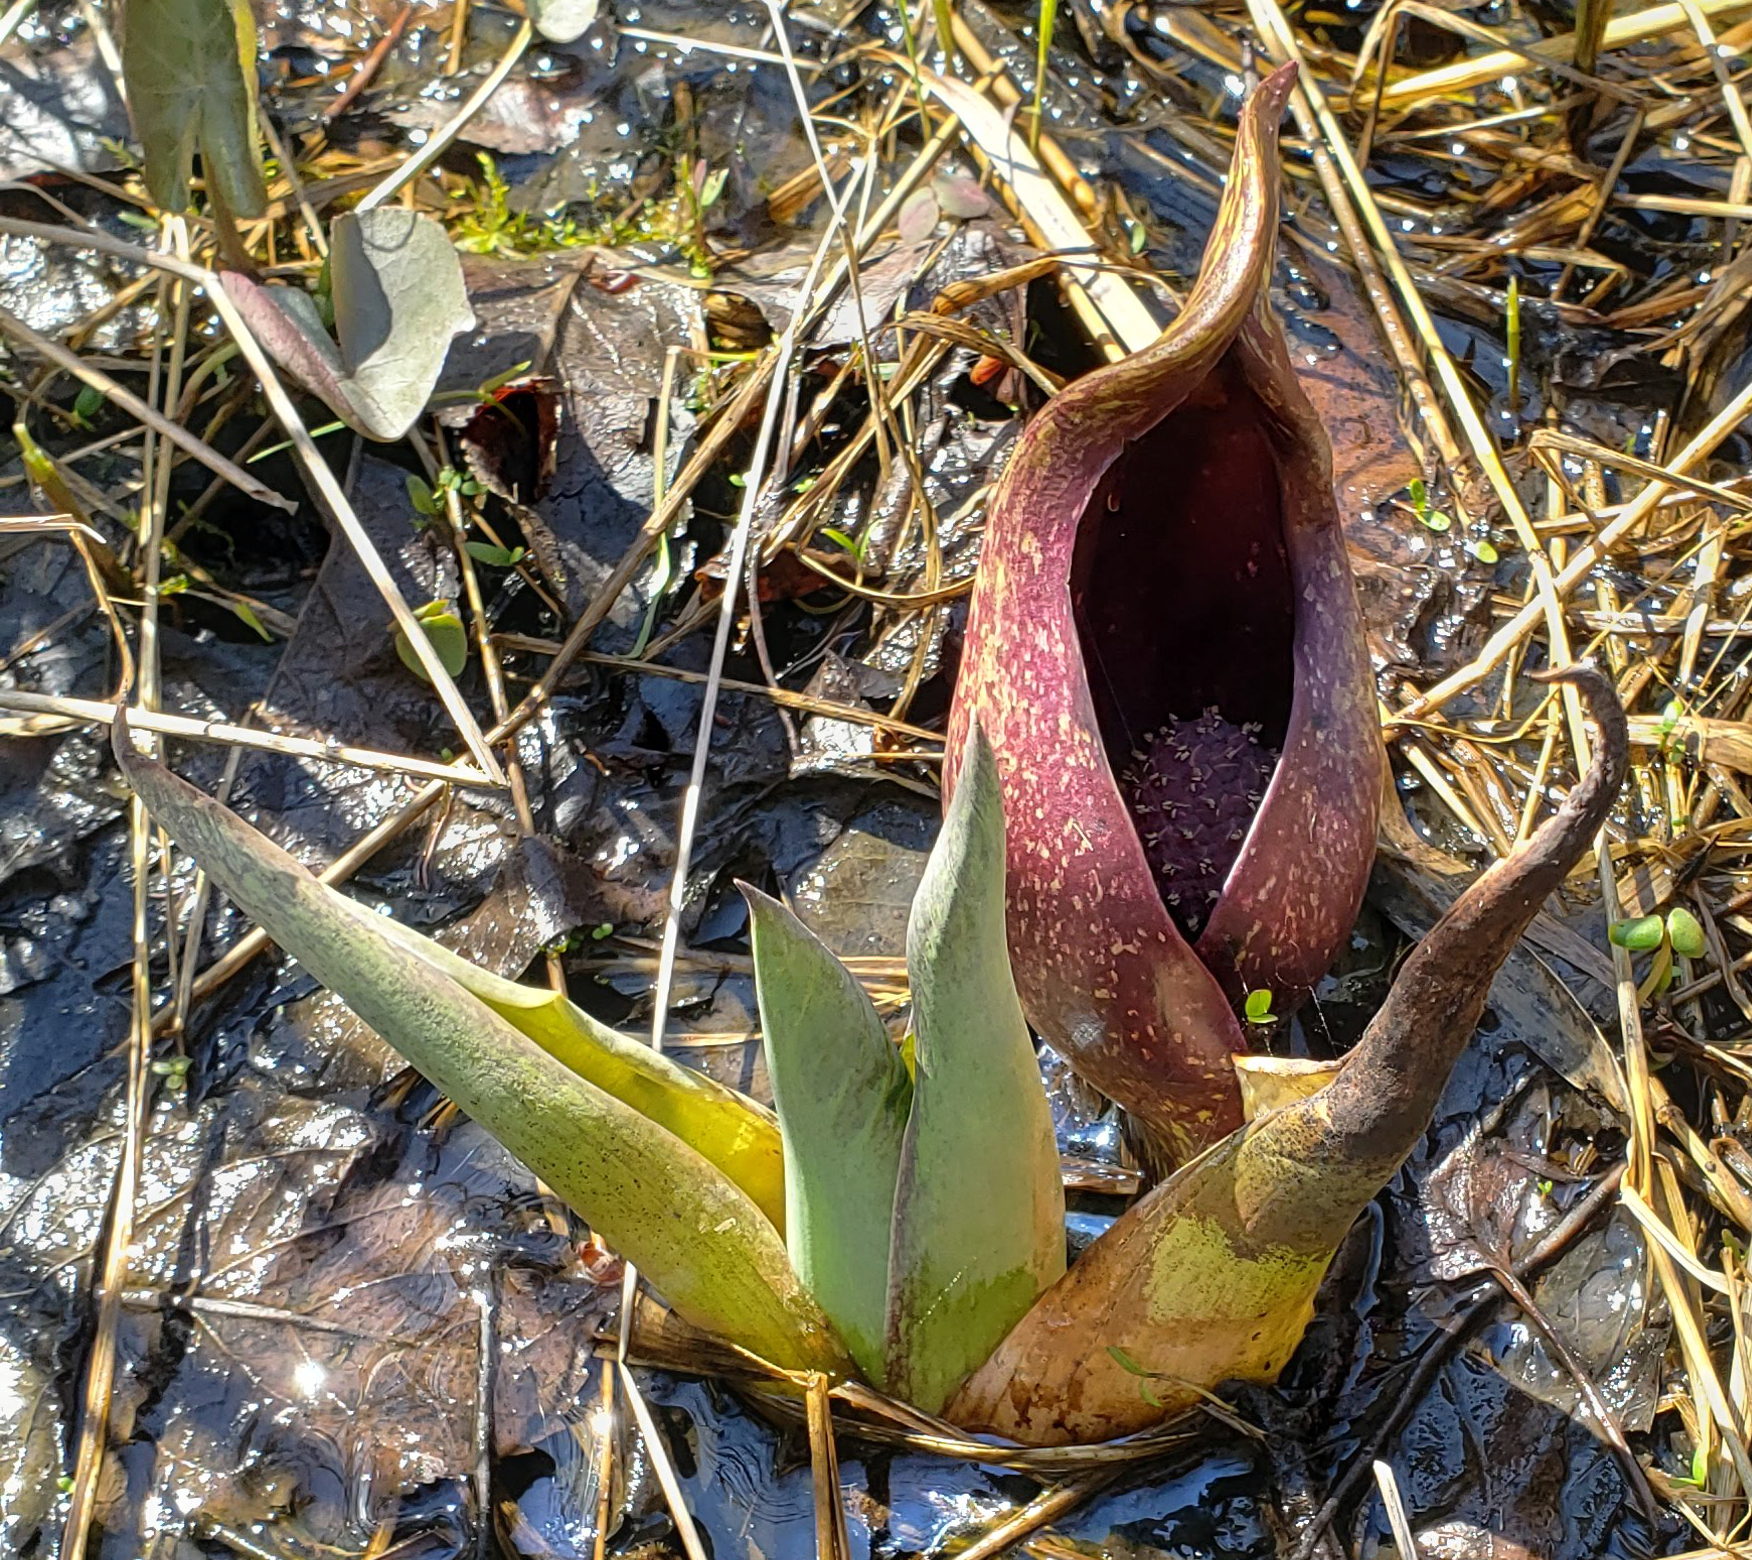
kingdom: Plantae
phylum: Tracheophyta
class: Liliopsida
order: Alismatales
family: Araceae
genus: Symplocarpus
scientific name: Symplocarpus foetidus
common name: Eastern skunk cabbage
